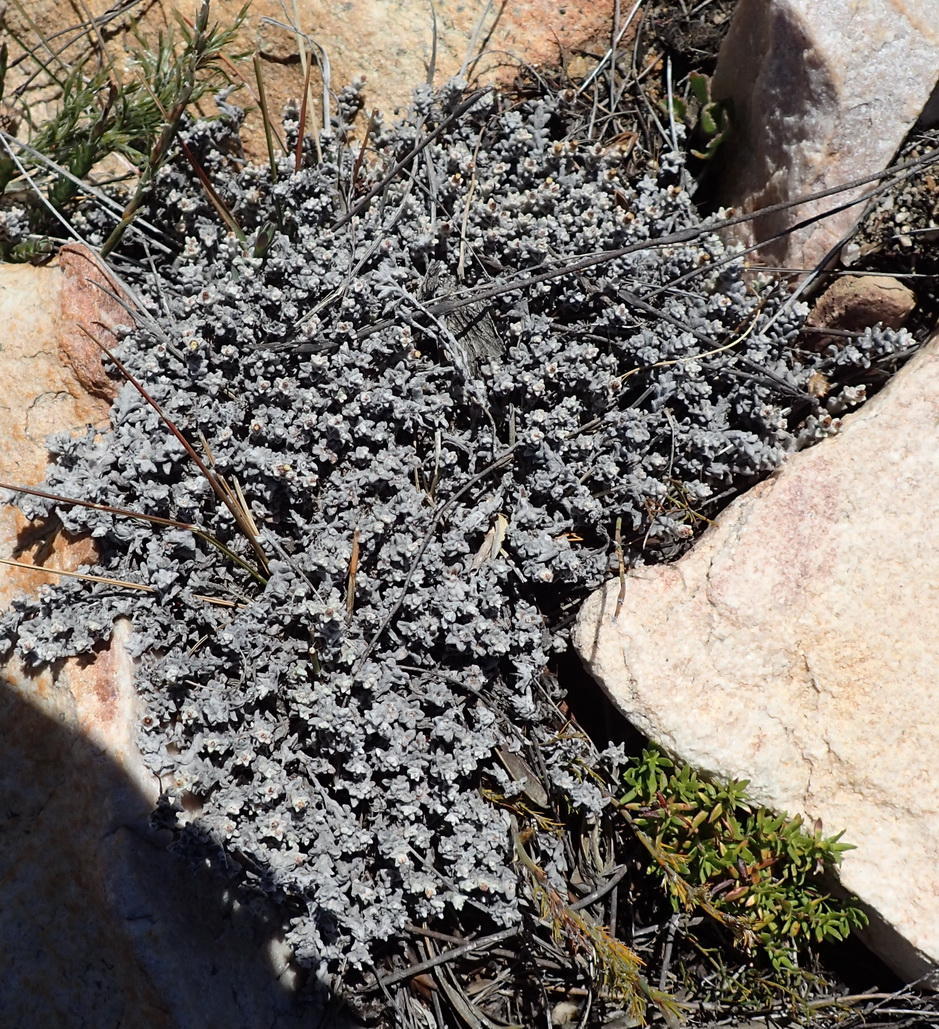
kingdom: Plantae
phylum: Tracheophyta
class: Magnoliopsida
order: Asterales
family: Asteraceae
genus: Helichrysum
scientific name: Helichrysum zwartbergense
